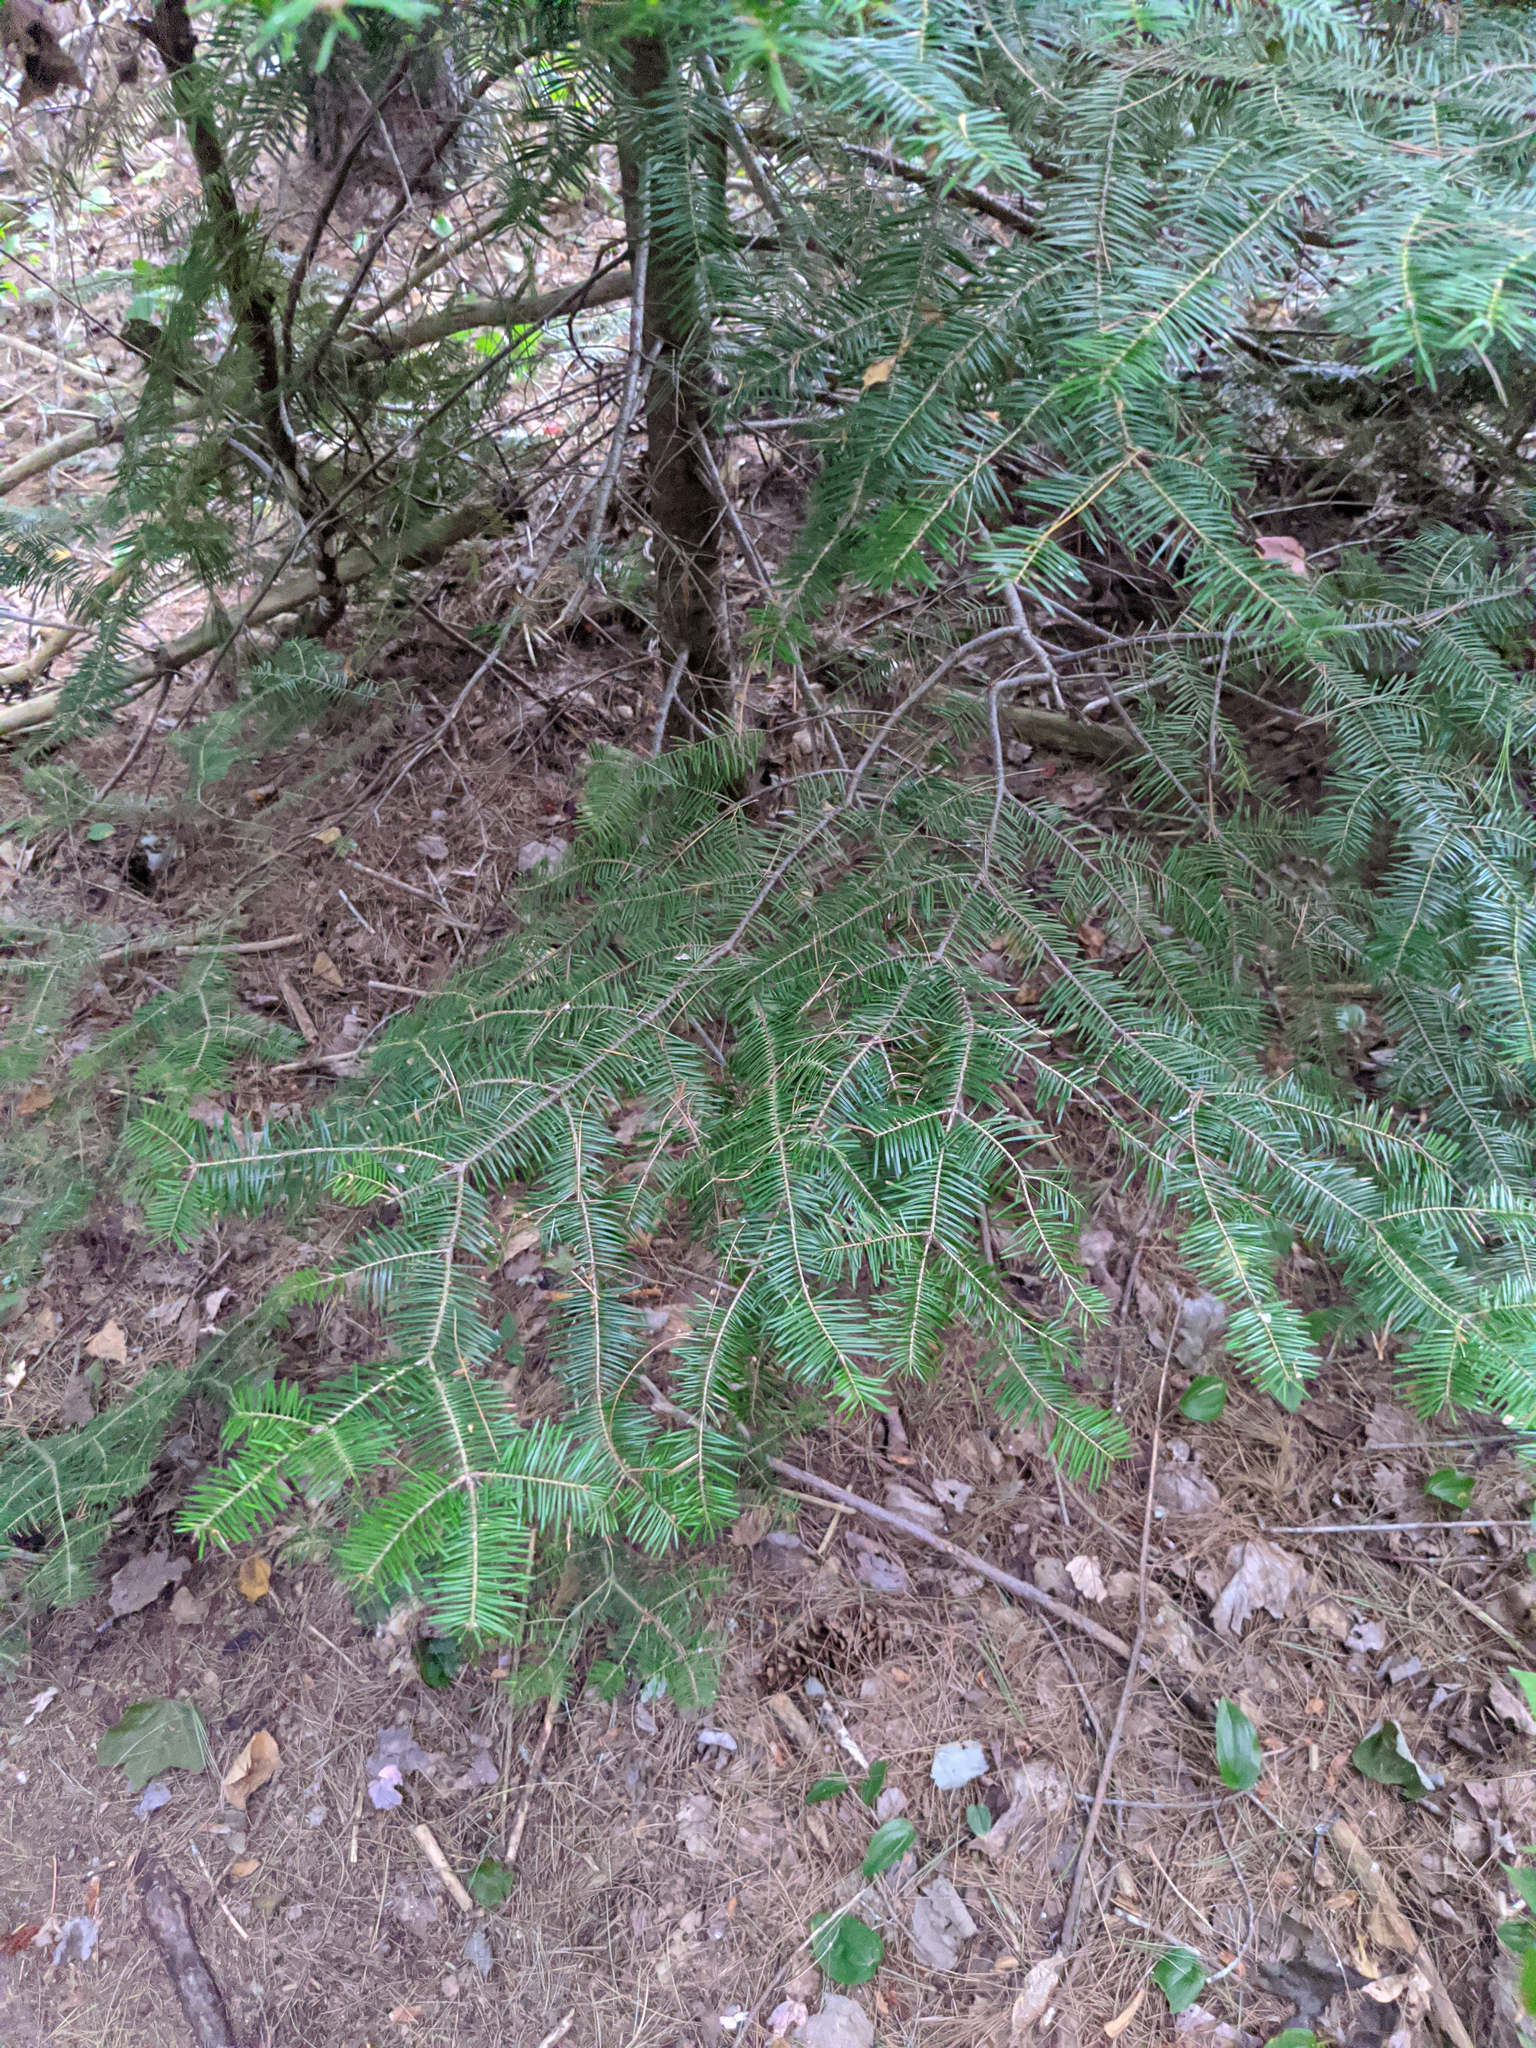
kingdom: Plantae
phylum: Tracheophyta
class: Pinopsida
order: Pinales
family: Pinaceae
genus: Abies
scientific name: Abies balsamea
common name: Balsam fir
